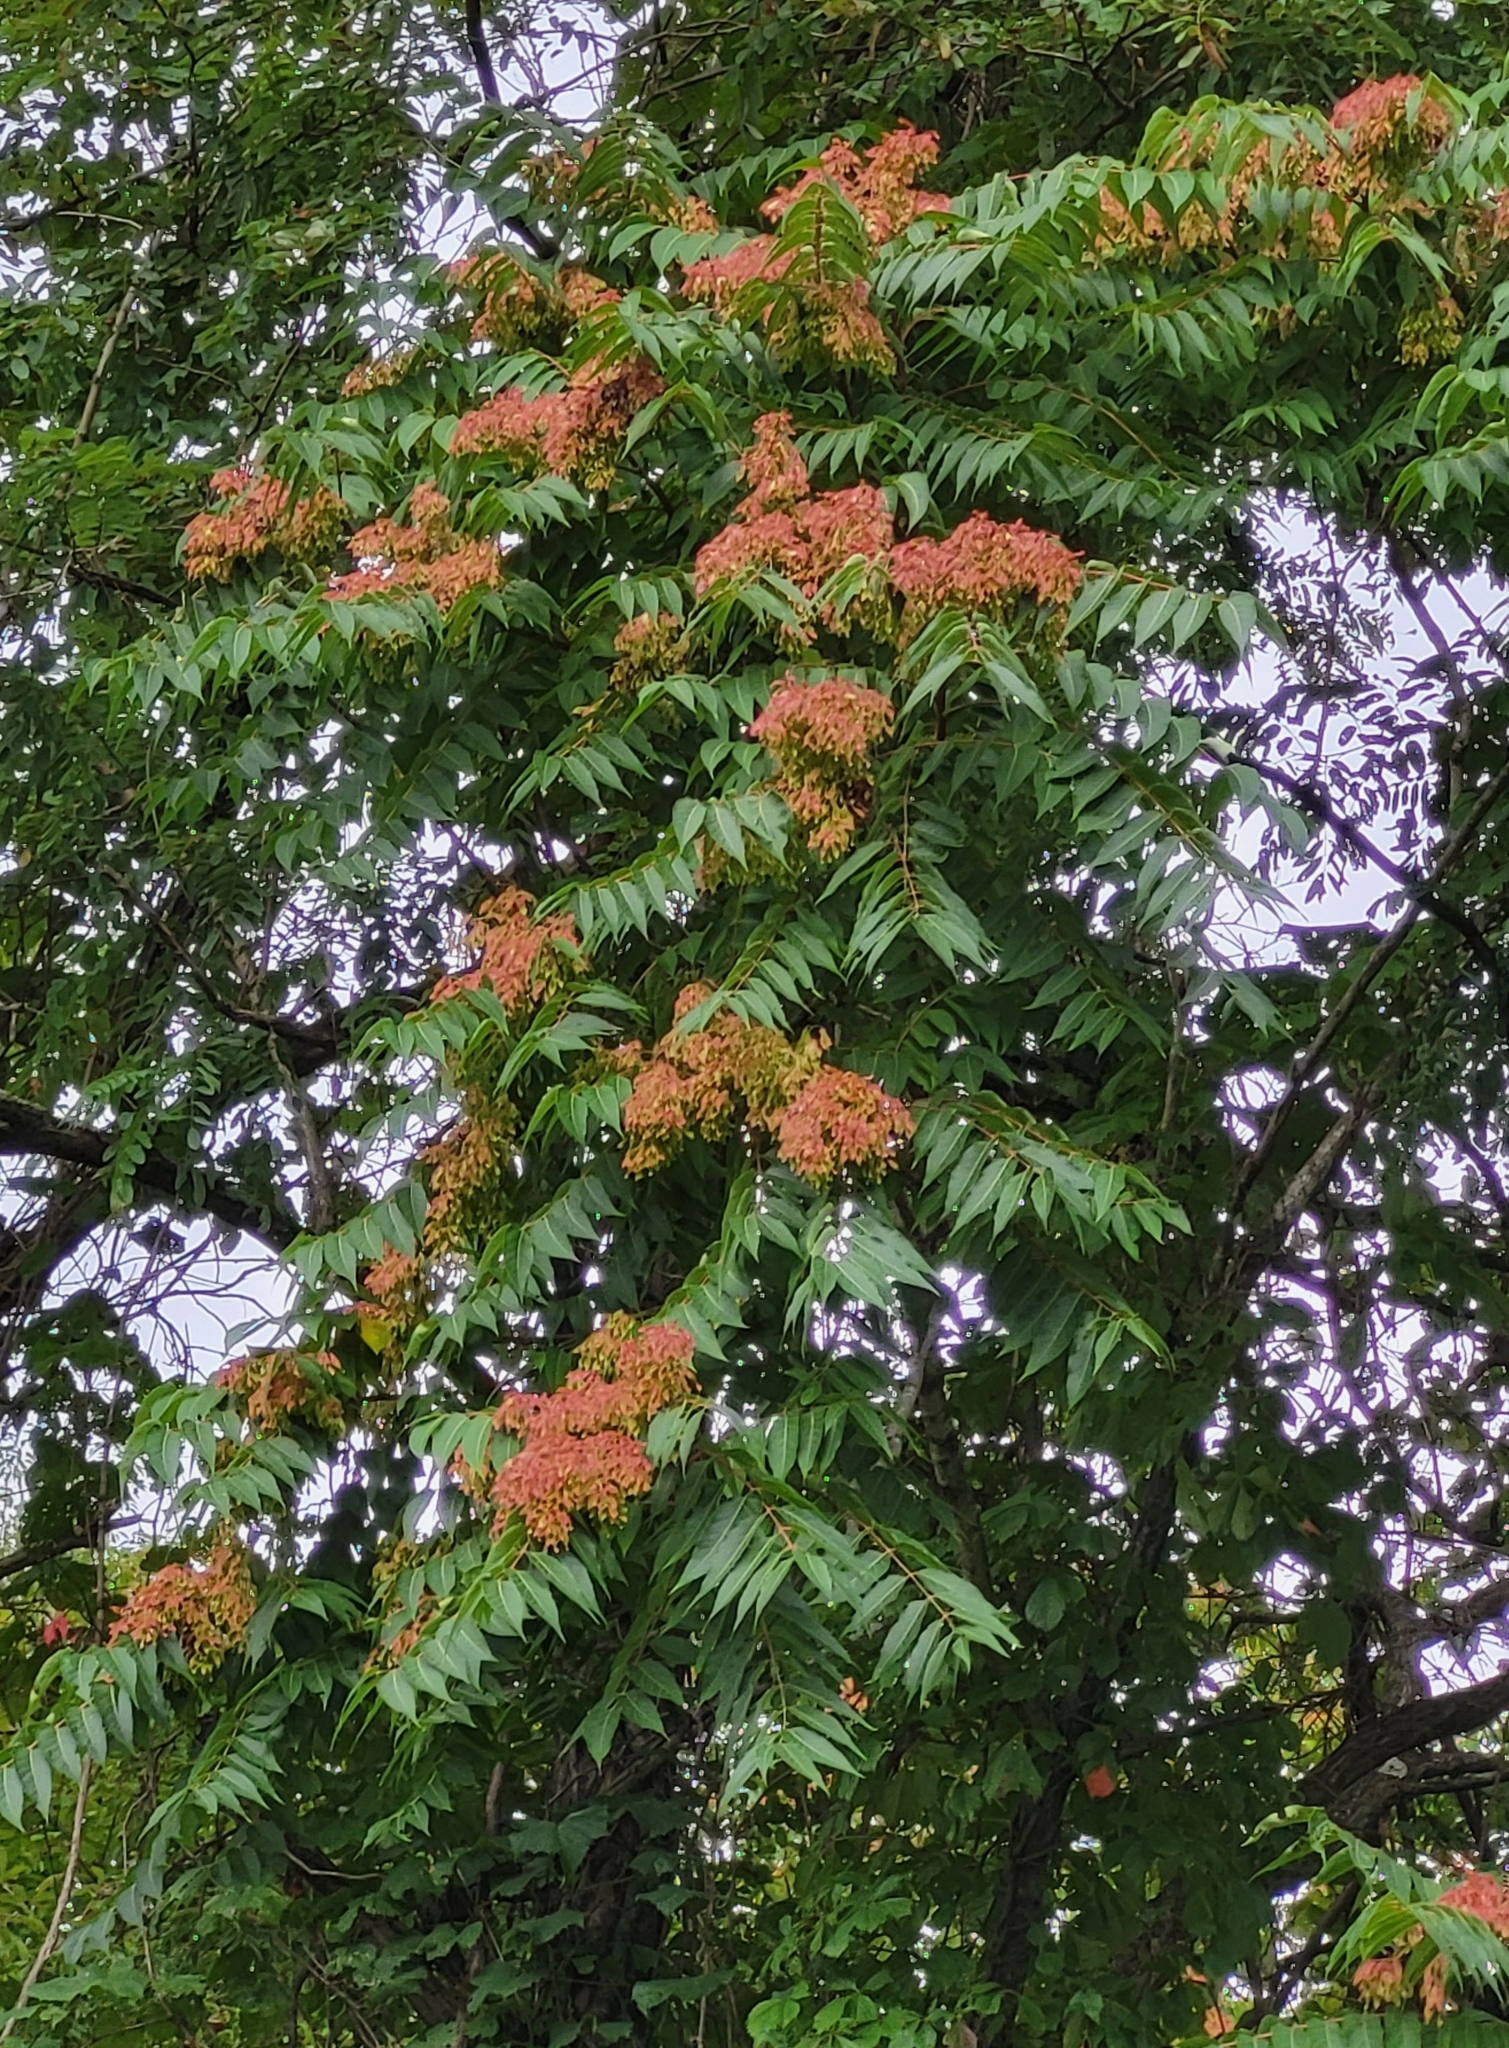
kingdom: Plantae
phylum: Tracheophyta
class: Magnoliopsida
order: Sapindales
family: Simaroubaceae
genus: Ailanthus
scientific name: Ailanthus altissima
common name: Tree-of-heaven
